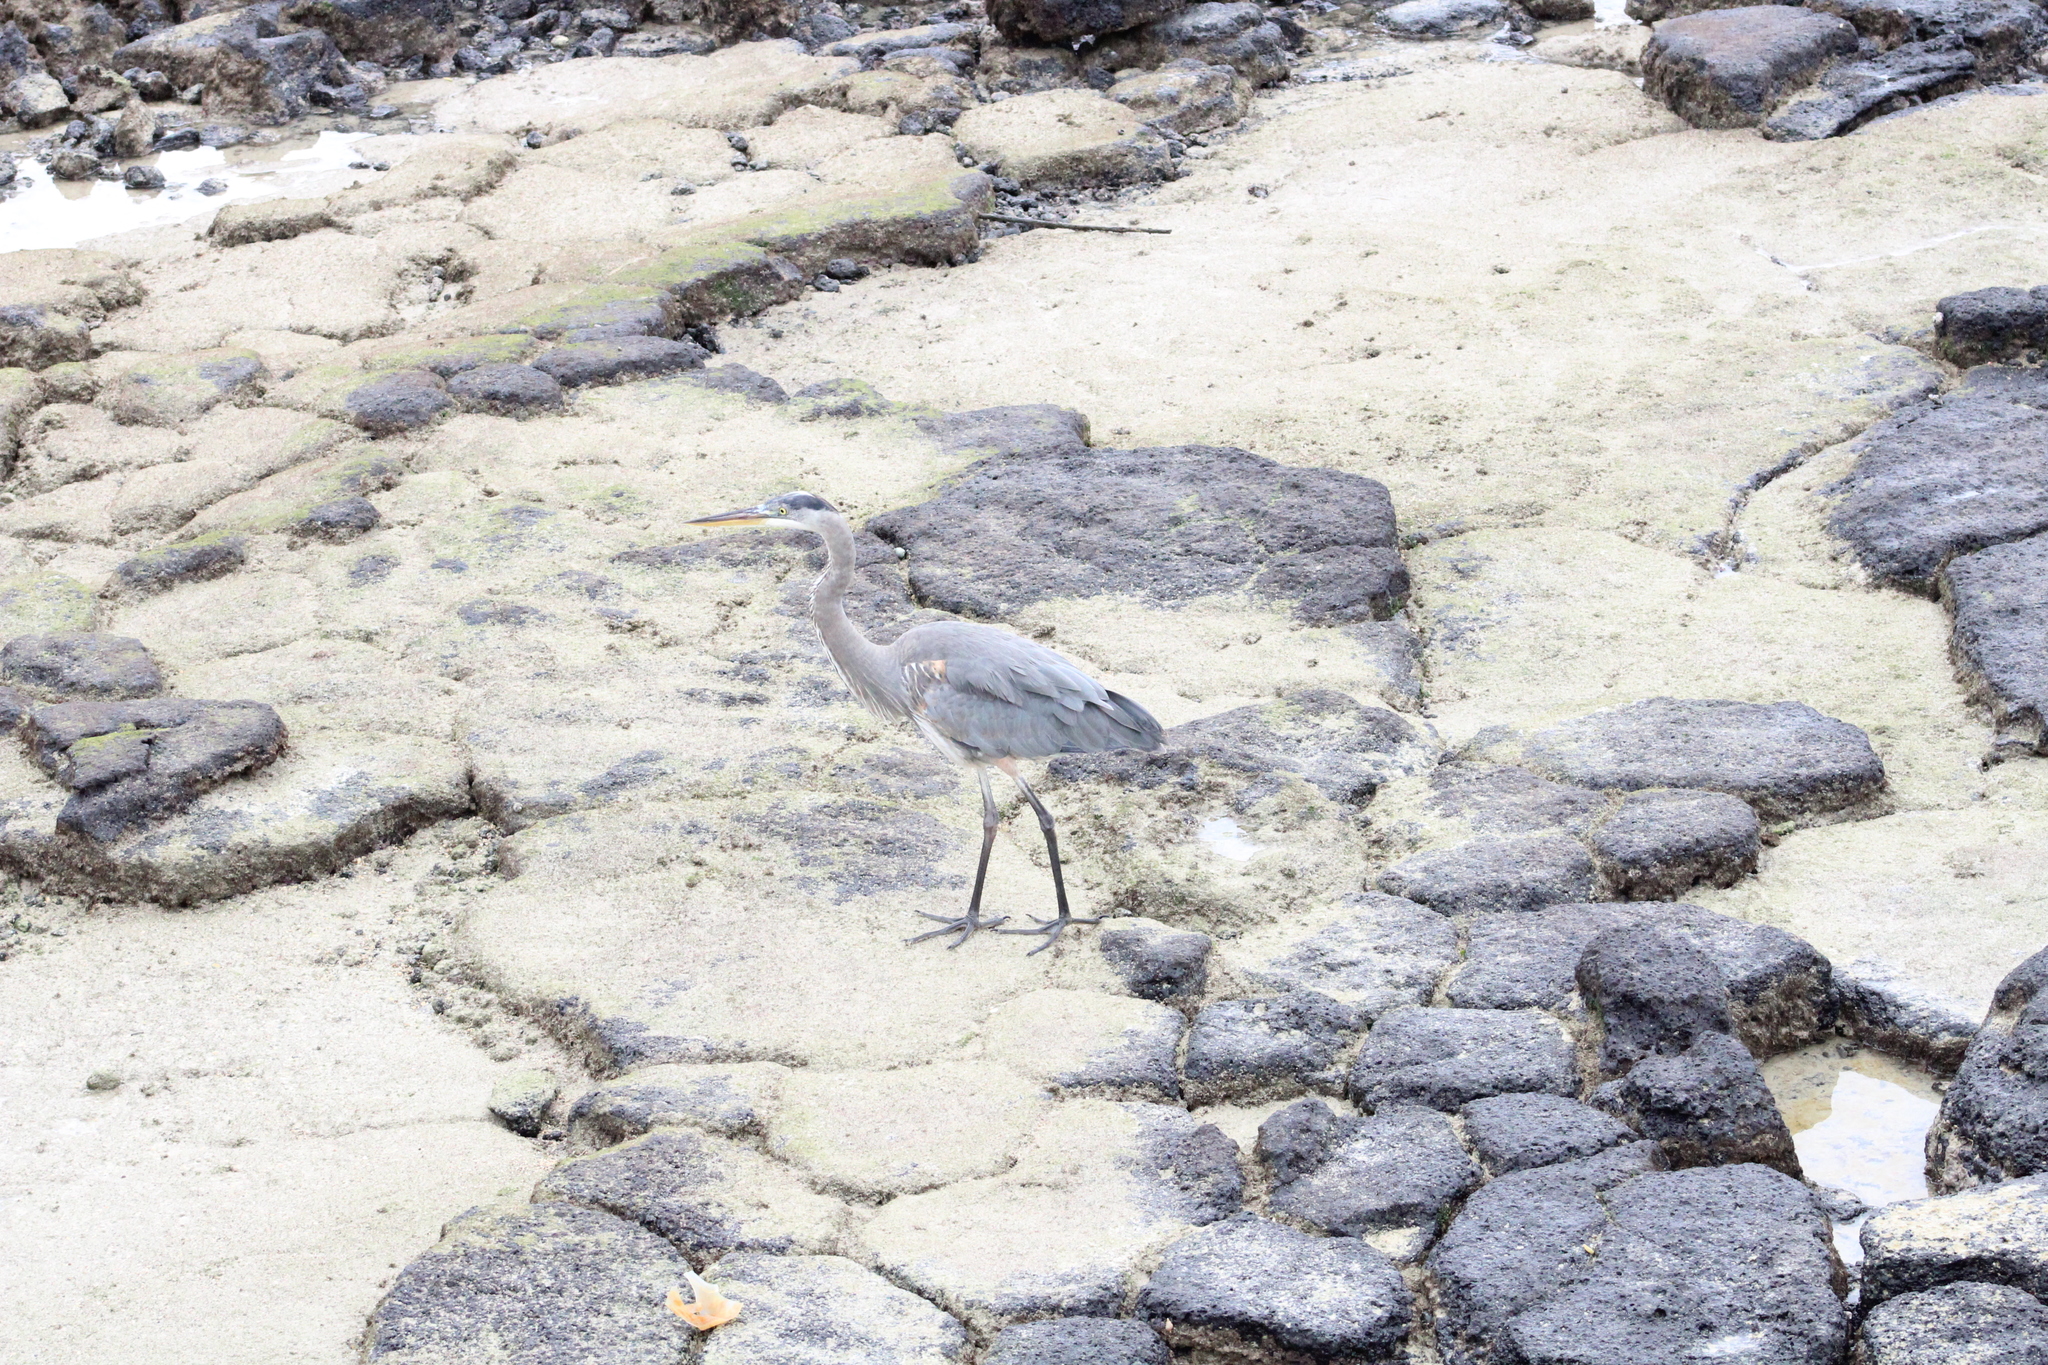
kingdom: Animalia
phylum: Chordata
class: Aves
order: Pelecaniformes
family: Ardeidae
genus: Ardea
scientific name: Ardea herodias
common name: Great blue heron
